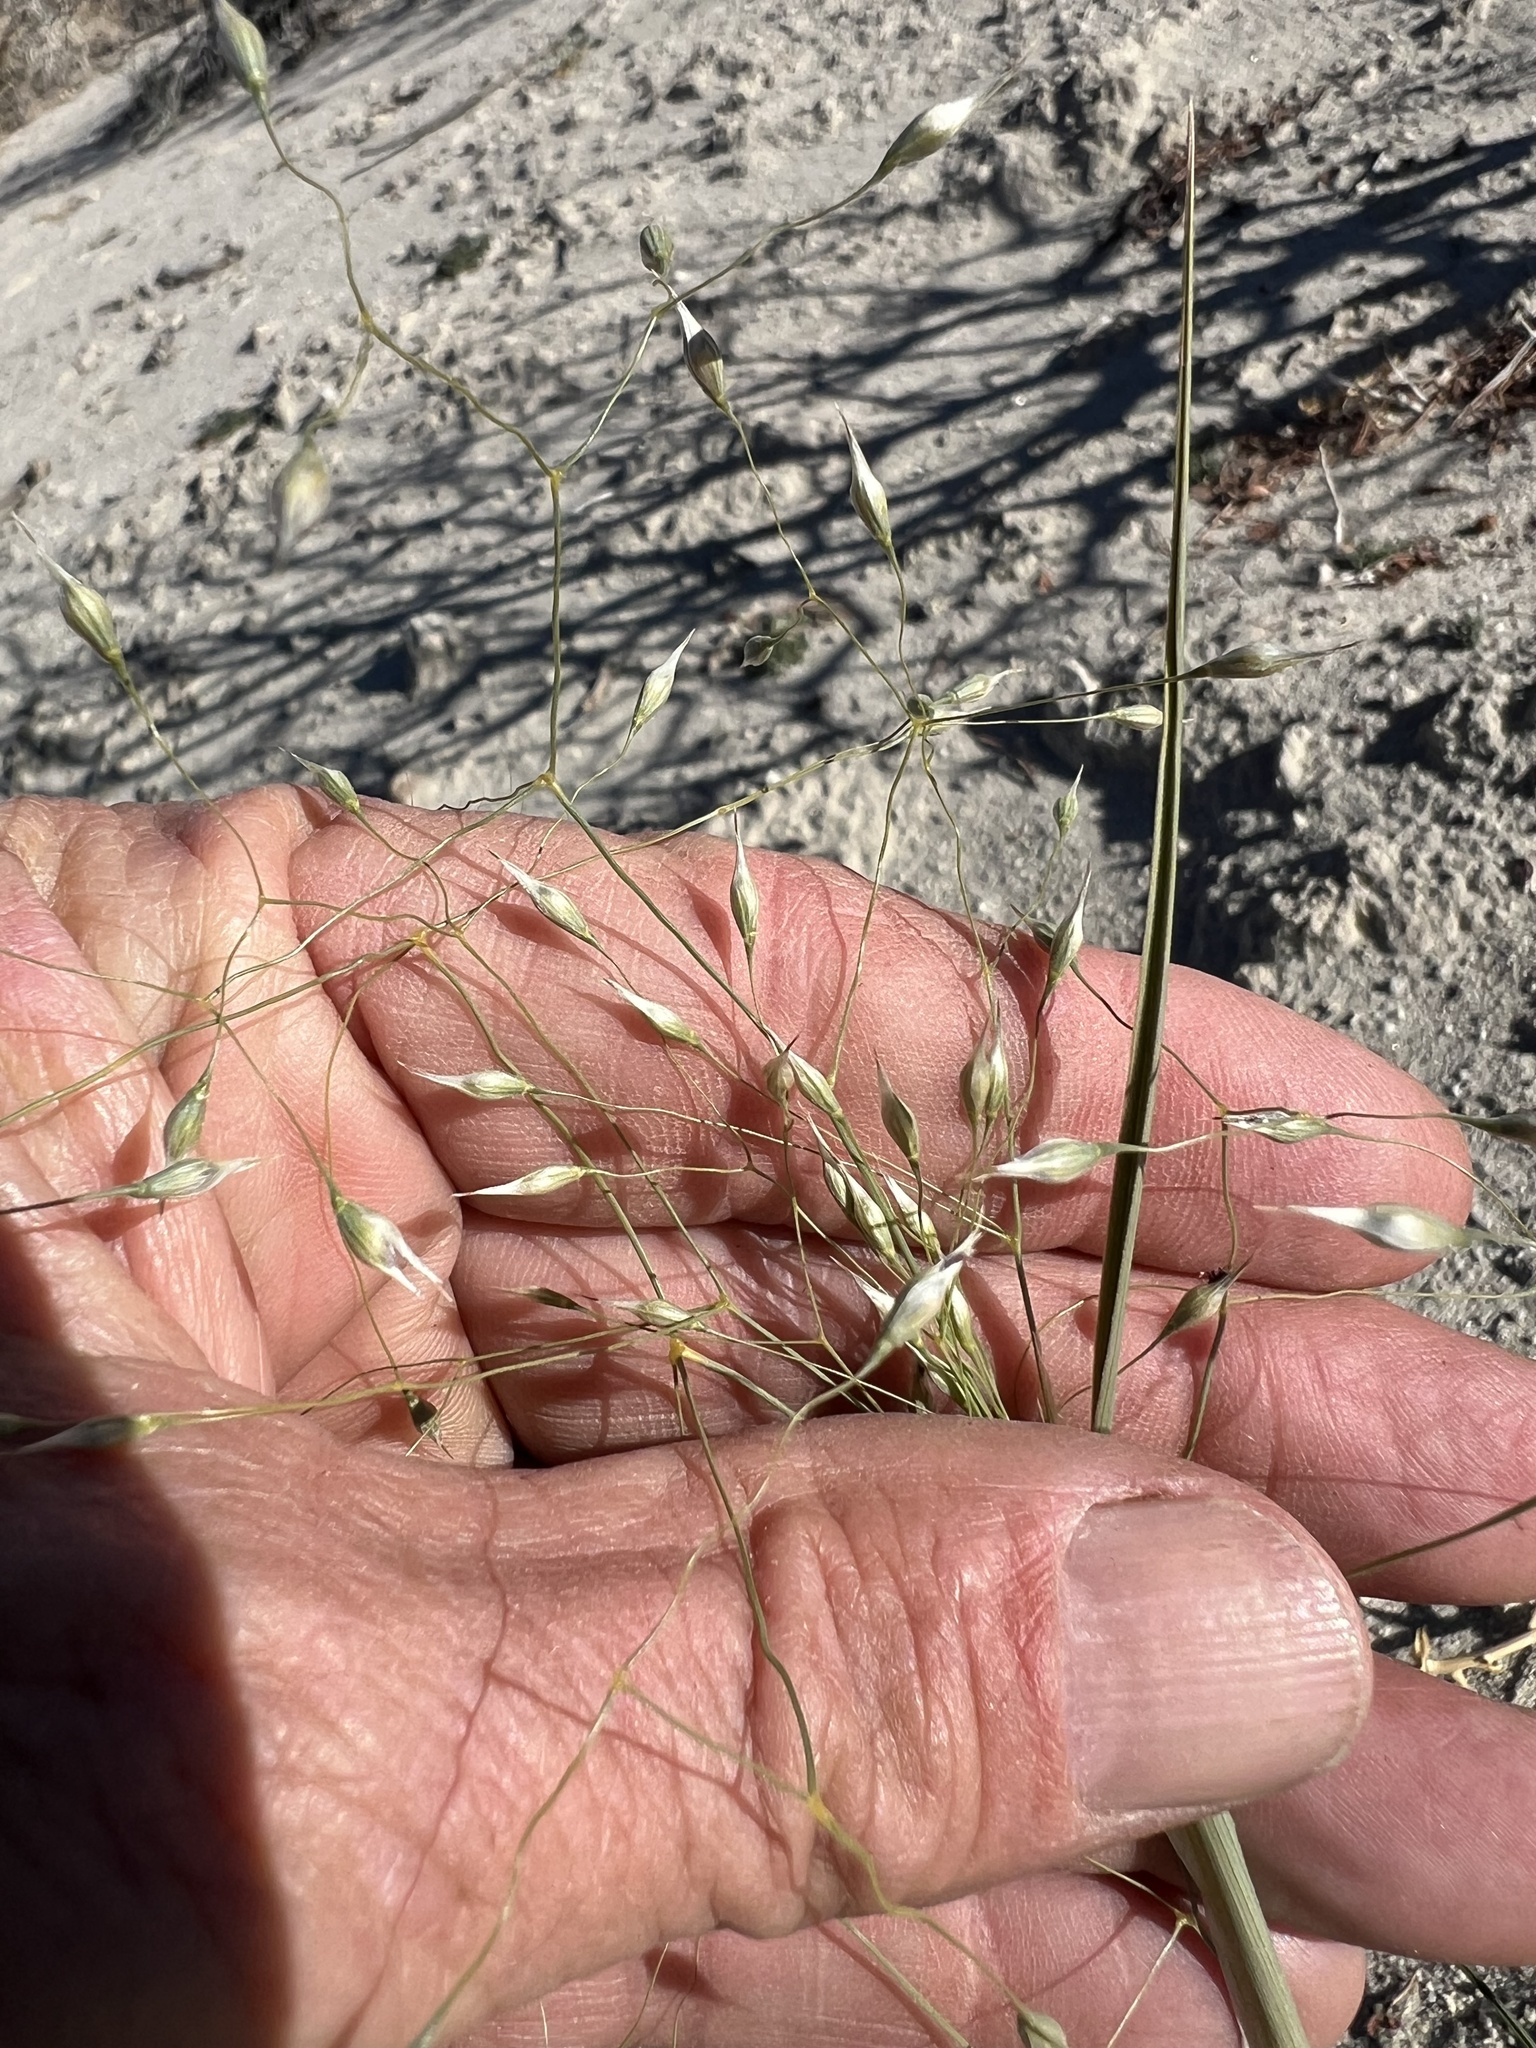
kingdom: Plantae
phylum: Tracheophyta
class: Liliopsida
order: Poales
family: Poaceae
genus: Eriocoma
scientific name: Eriocoma hymenoides
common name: Indian mountain ricegrass
